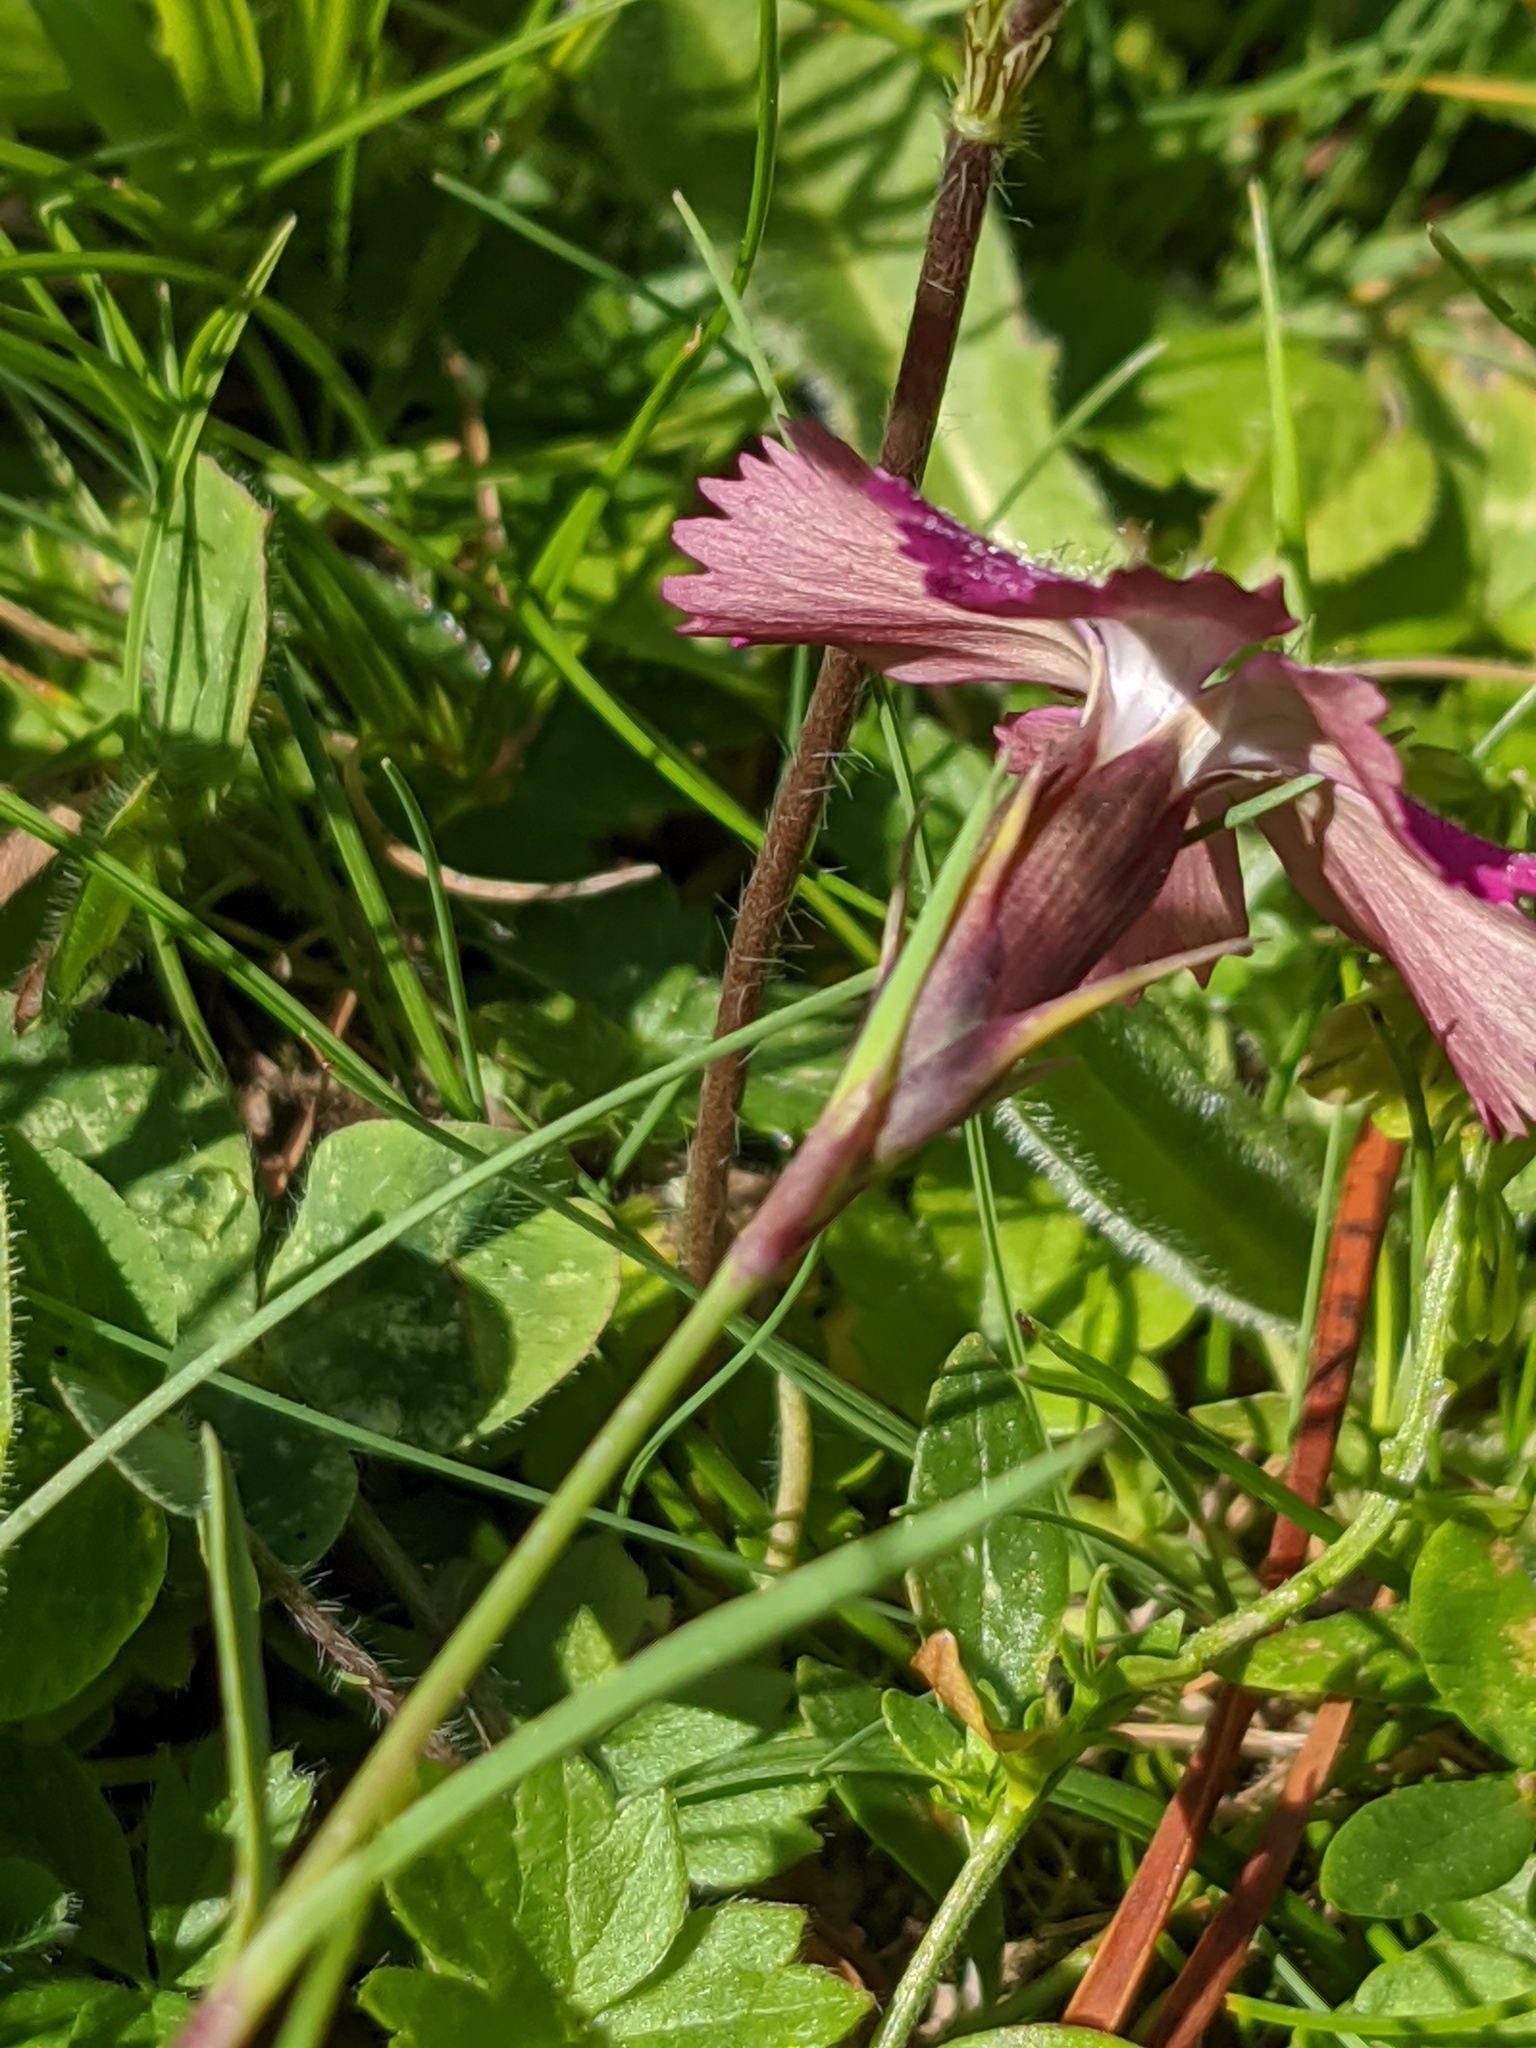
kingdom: Plantae
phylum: Tracheophyta
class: Magnoliopsida
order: Caryophyllales
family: Caryophyllaceae
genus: Dianthus
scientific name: Dianthus pavonius
